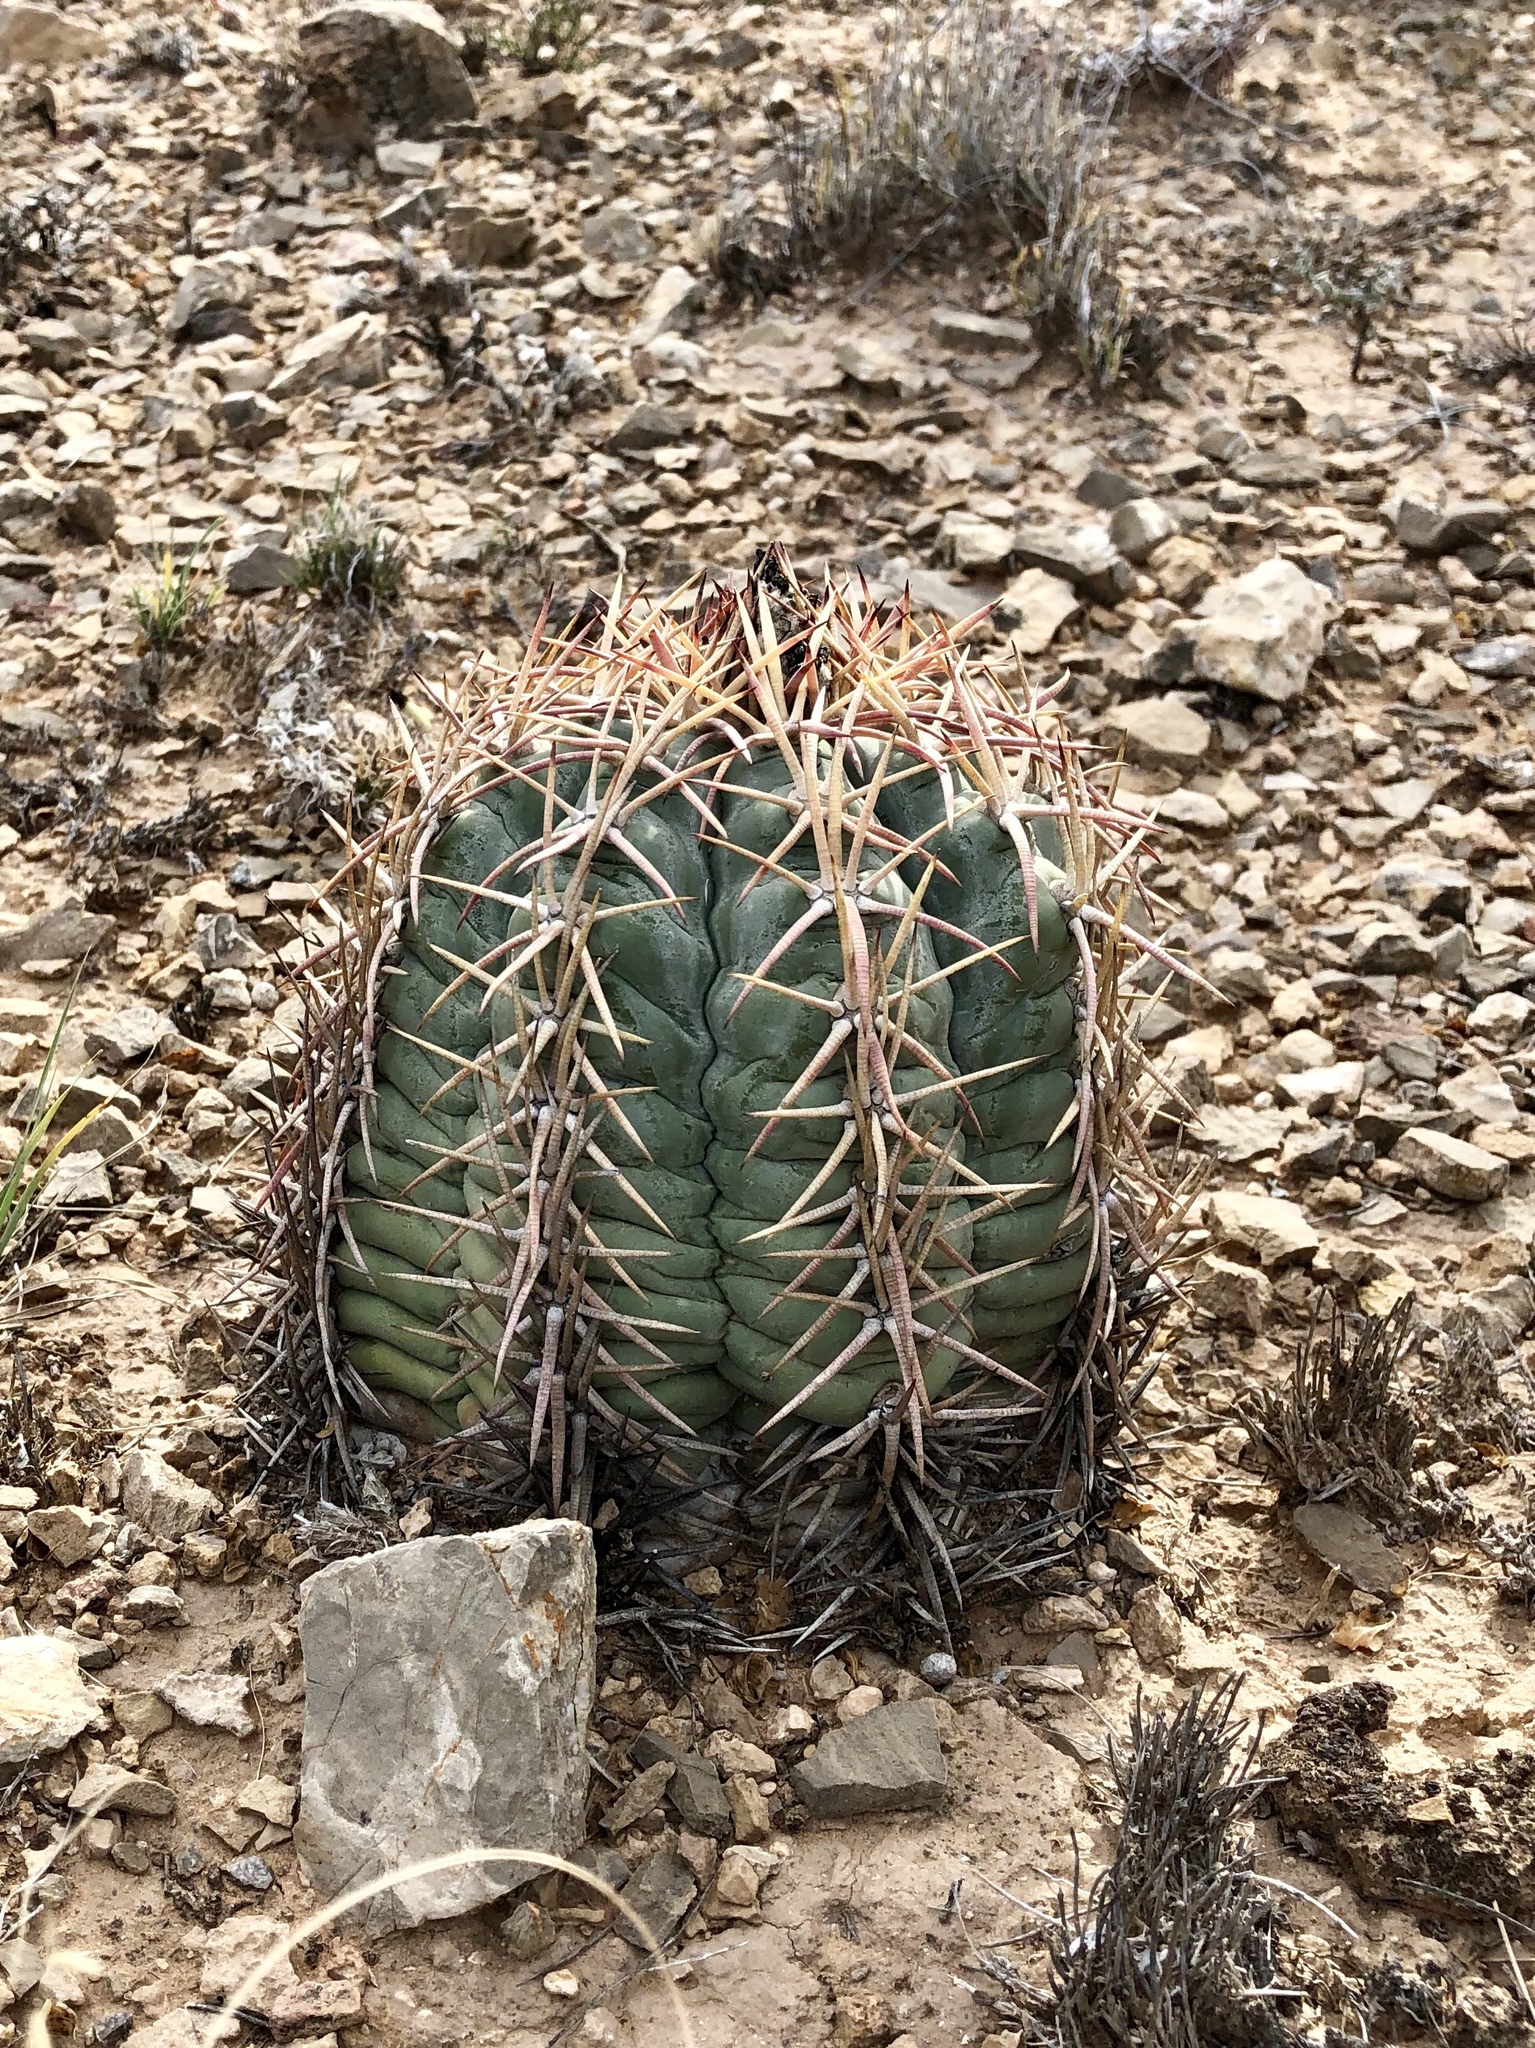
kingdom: Plantae
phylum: Tracheophyta
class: Magnoliopsida
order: Caryophyllales
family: Cactaceae
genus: Echinocactus
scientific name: Echinocactus horizonthalonius
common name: Devilshead
